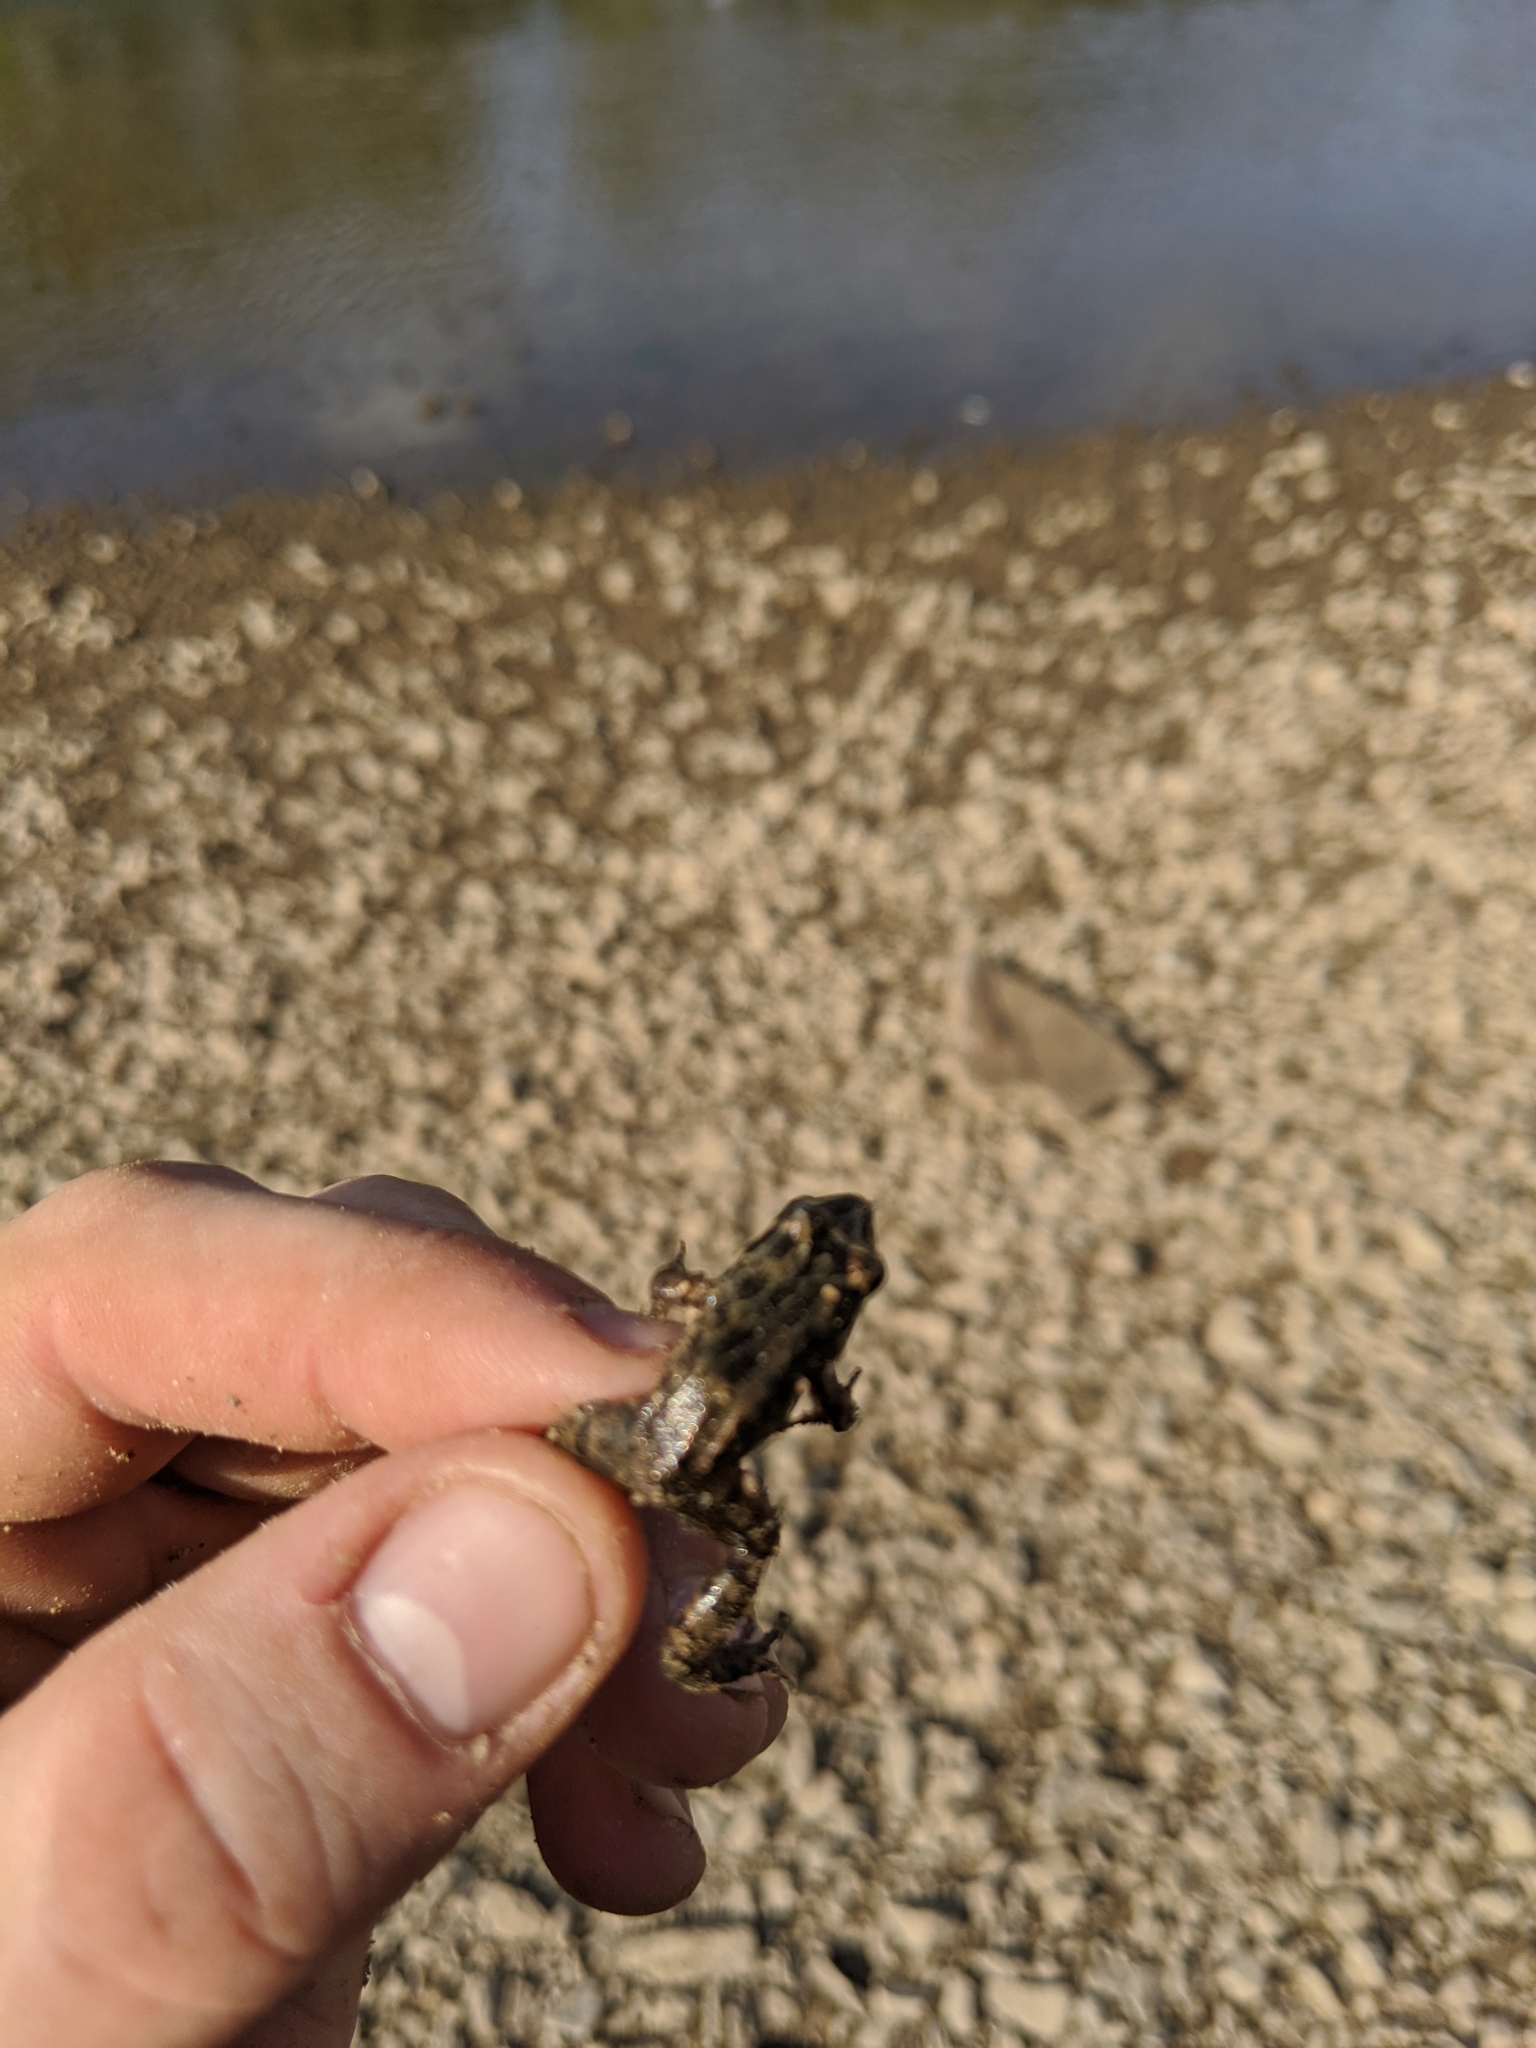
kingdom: Animalia
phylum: Chordata
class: Amphibia
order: Anura
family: Leptodactylidae
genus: Leptodactylus
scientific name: Leptodactylus melanonotus
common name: Fringe-toed foamfrog
